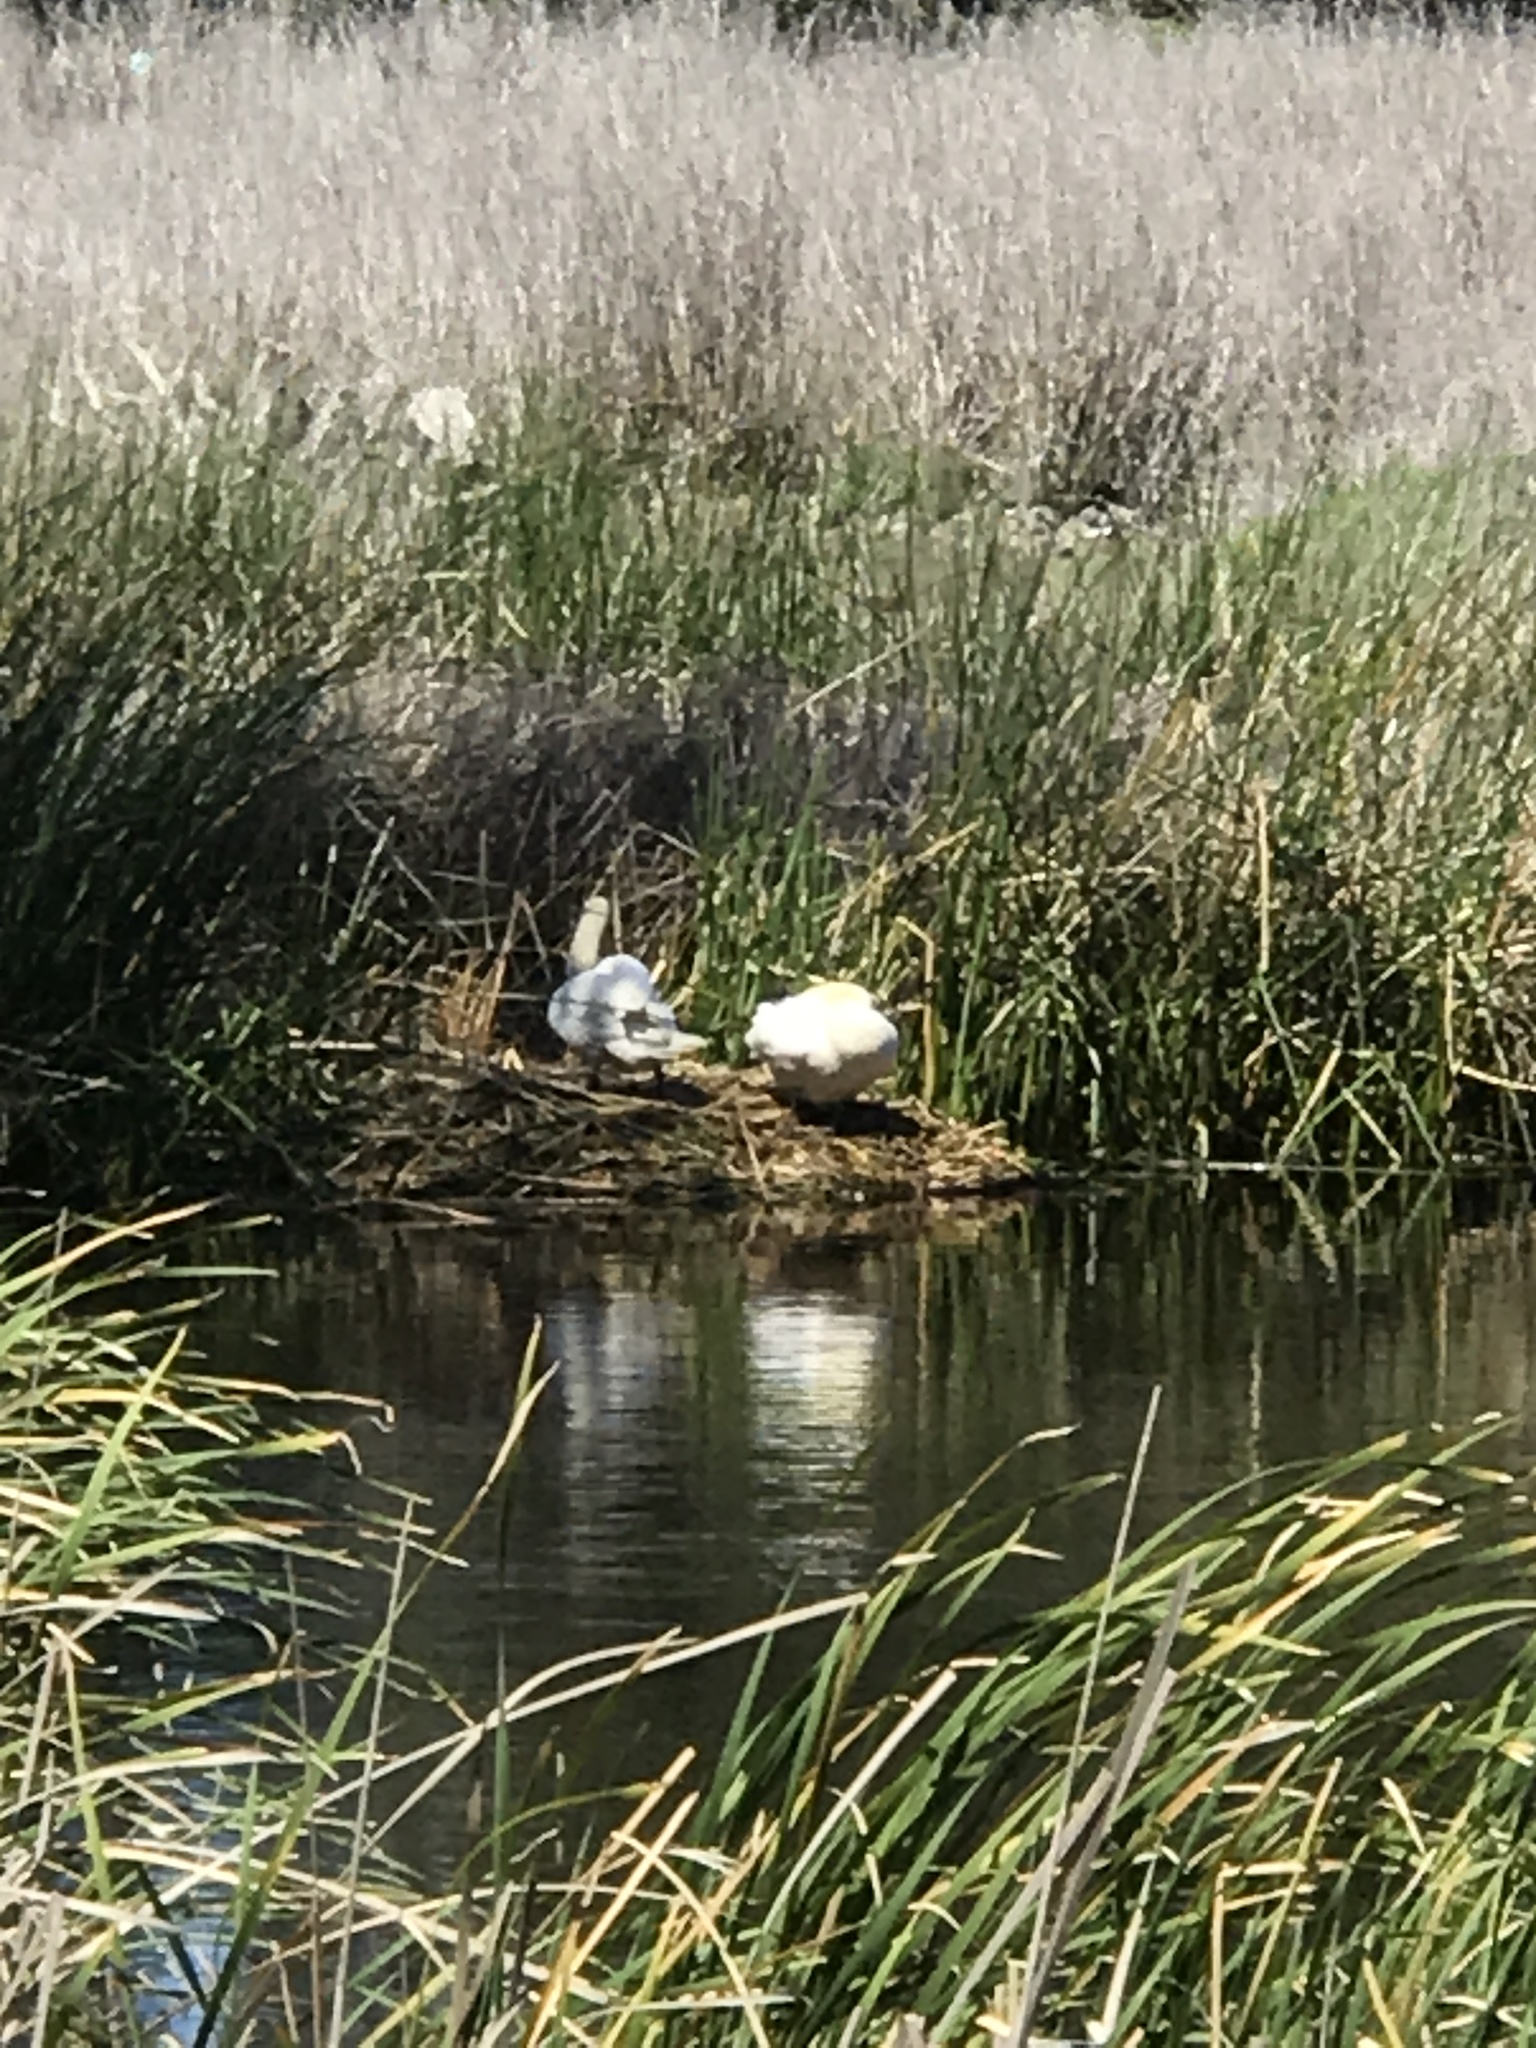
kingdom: Animalia
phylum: Chordata
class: Aves
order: Anseriformes
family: Anatidae
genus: Cygnus
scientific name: Cygnus olor
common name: Mute swan
